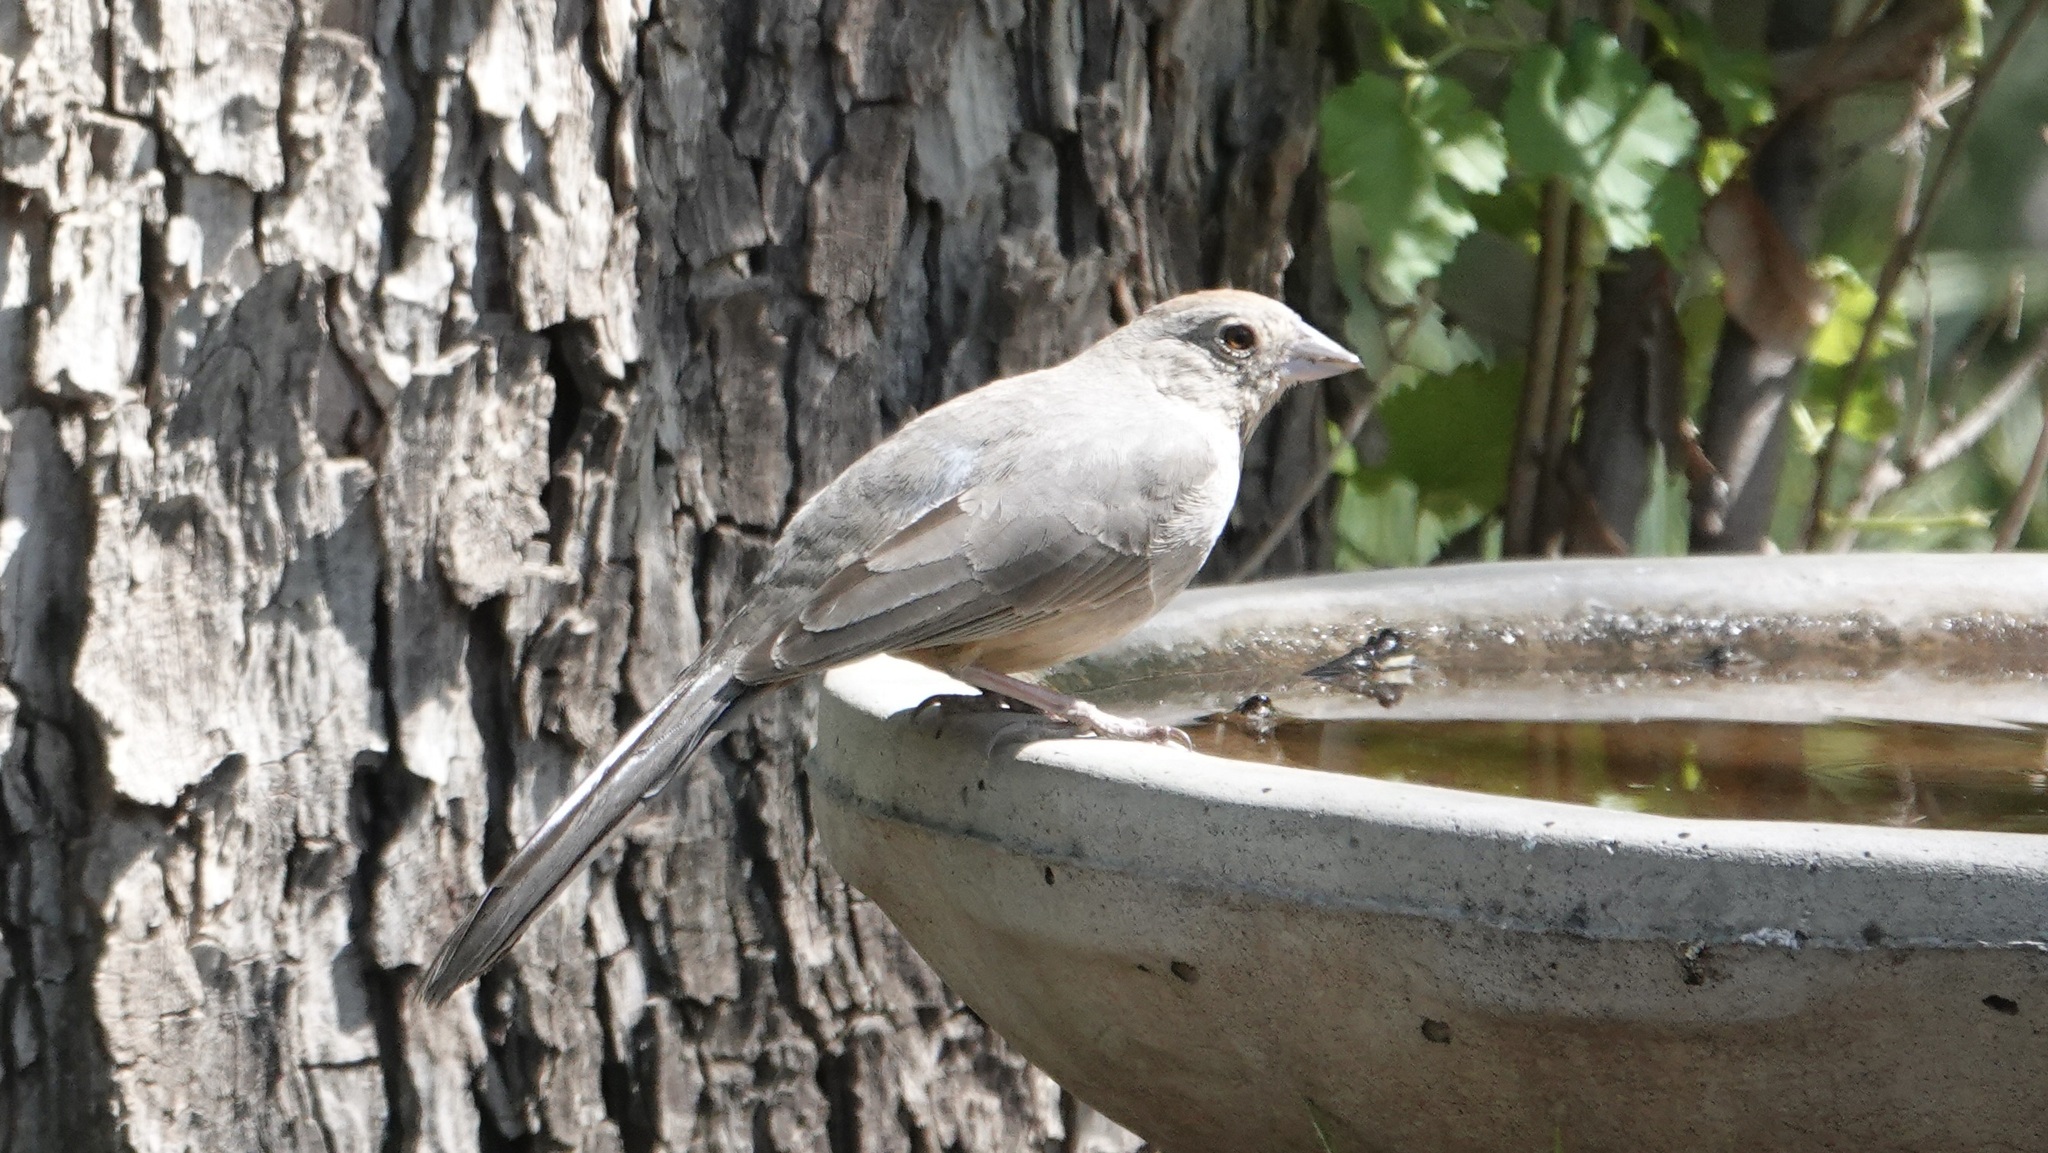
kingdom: Animalia
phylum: Chordata
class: Aves
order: Passeriformes
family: Passerellidae
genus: Melozone
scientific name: Melozone fusca
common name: Canyon towhee
